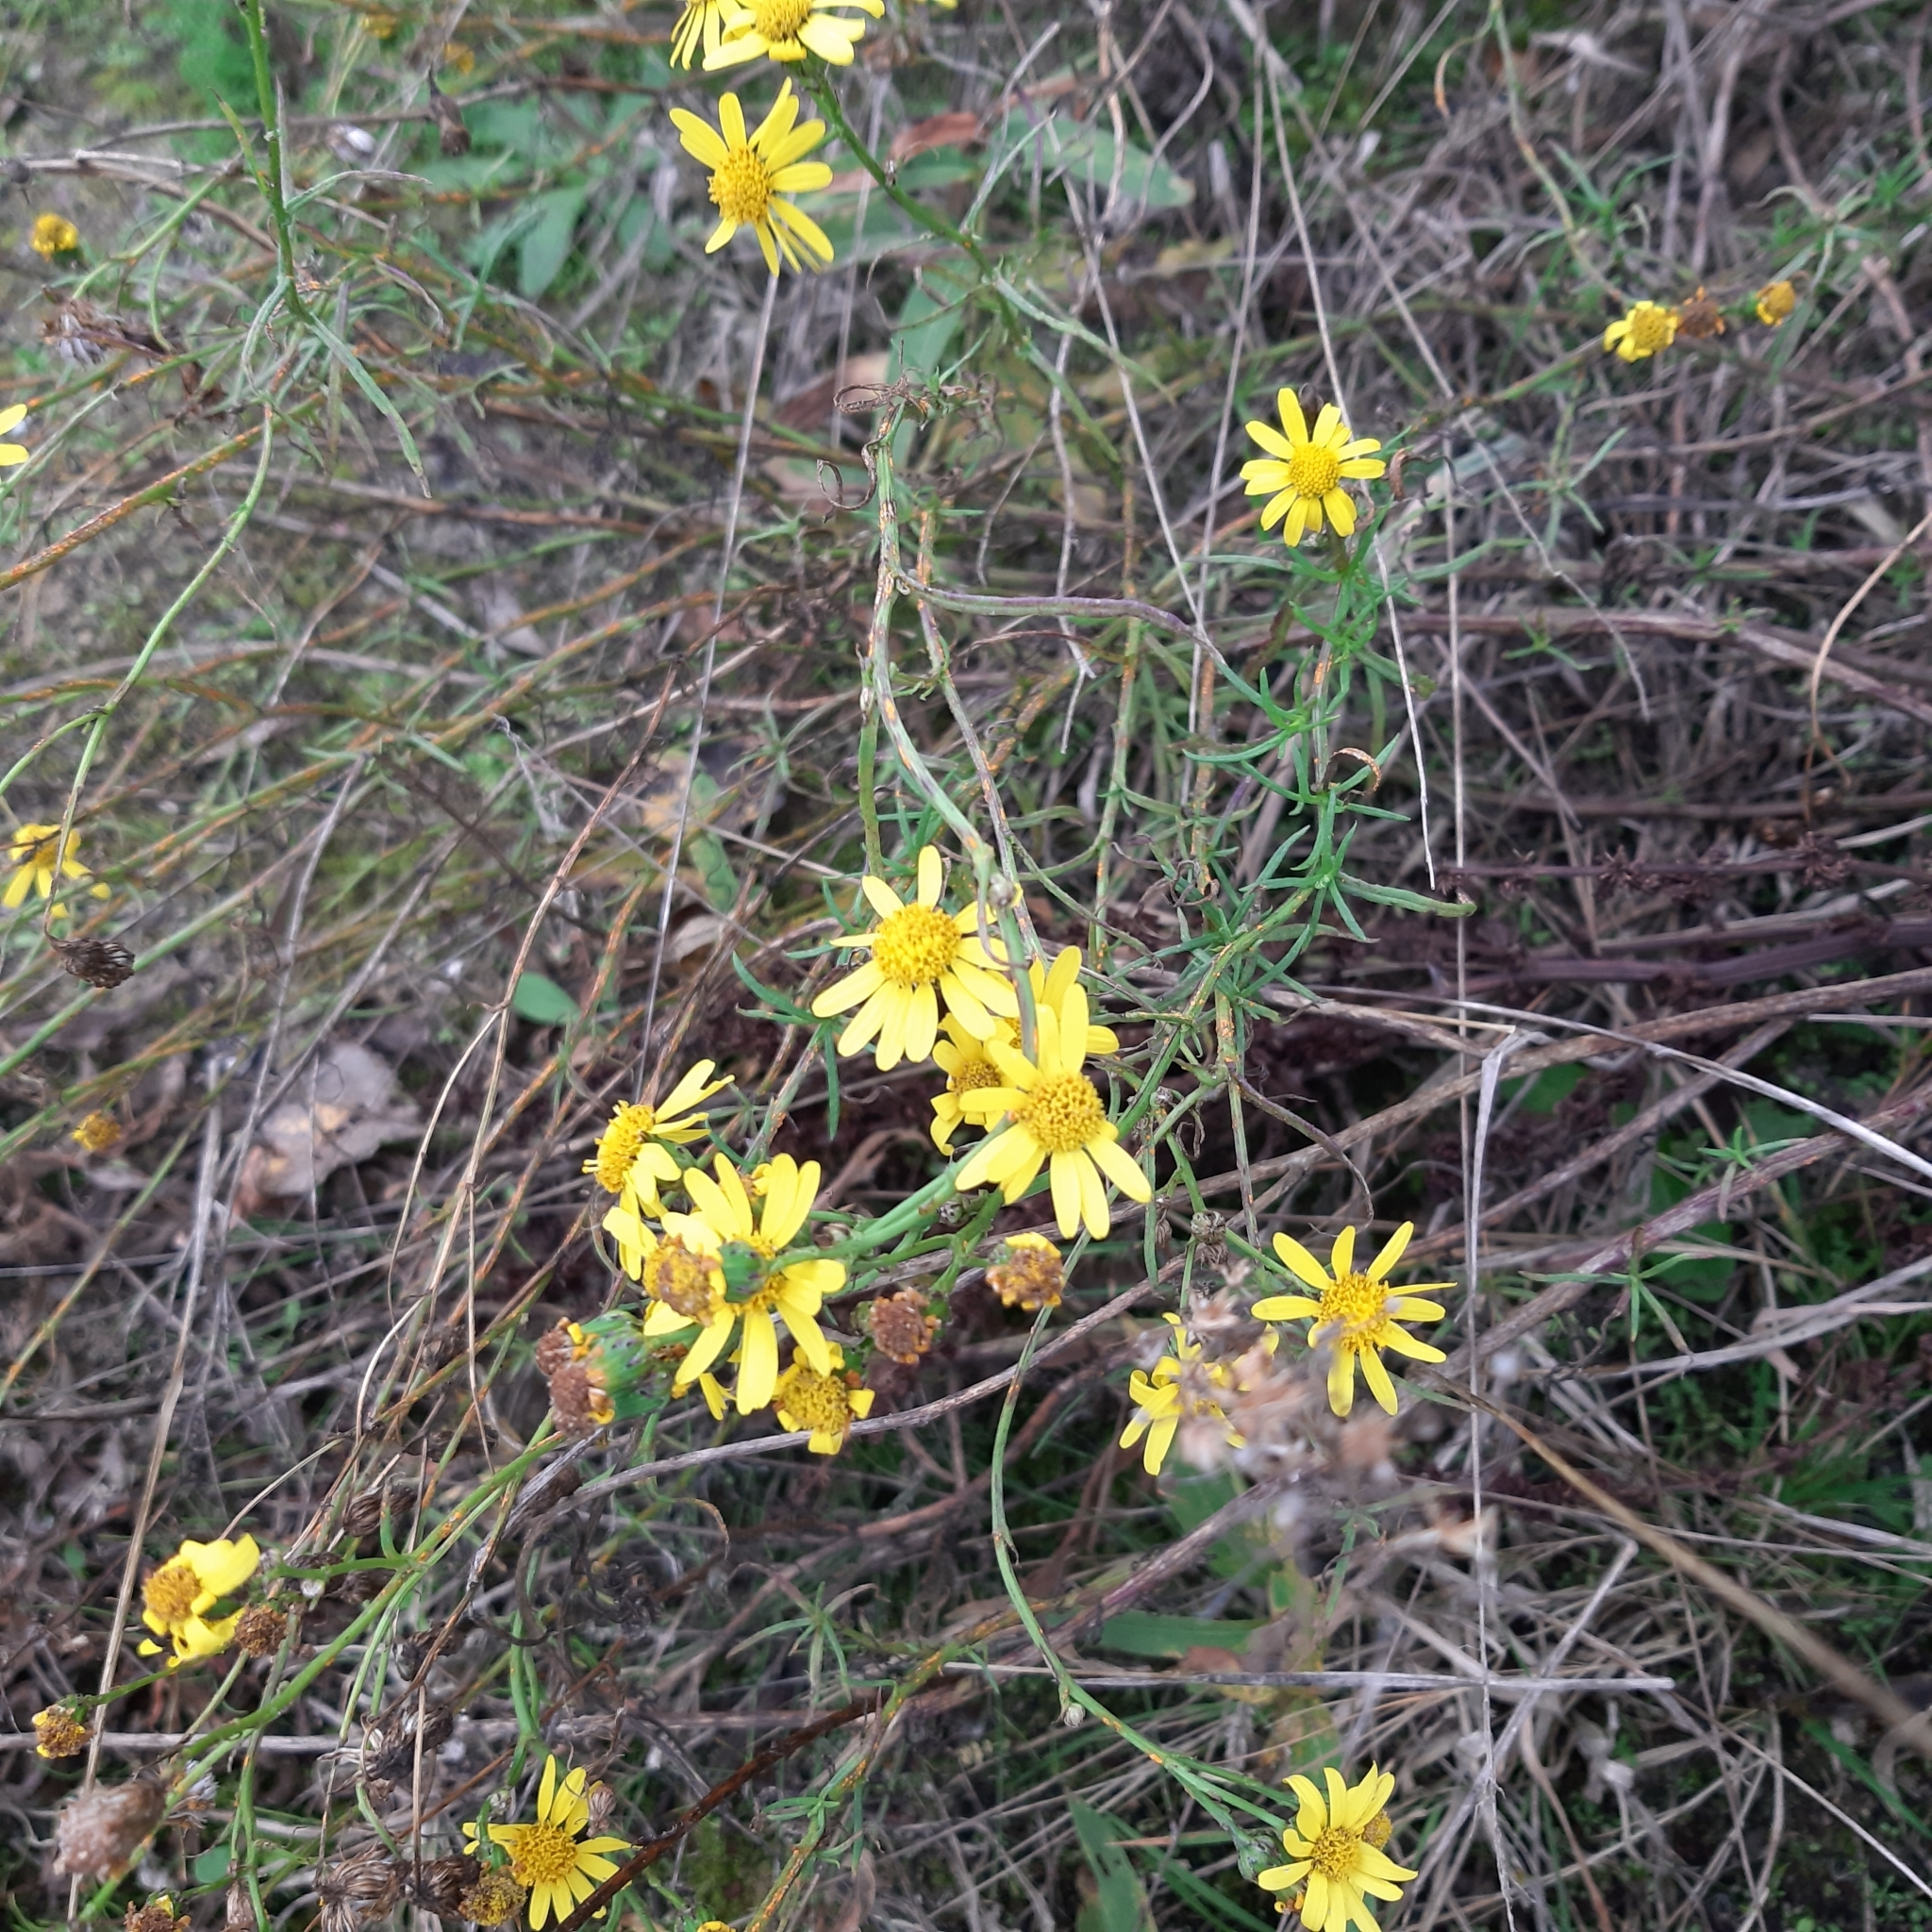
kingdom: Plantae
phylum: Tracheophyta
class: Magnoliopsida
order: Asterales
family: Asteraceae
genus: Senecio
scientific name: Senecio inaequidens
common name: Narrow-leaved ragwort
